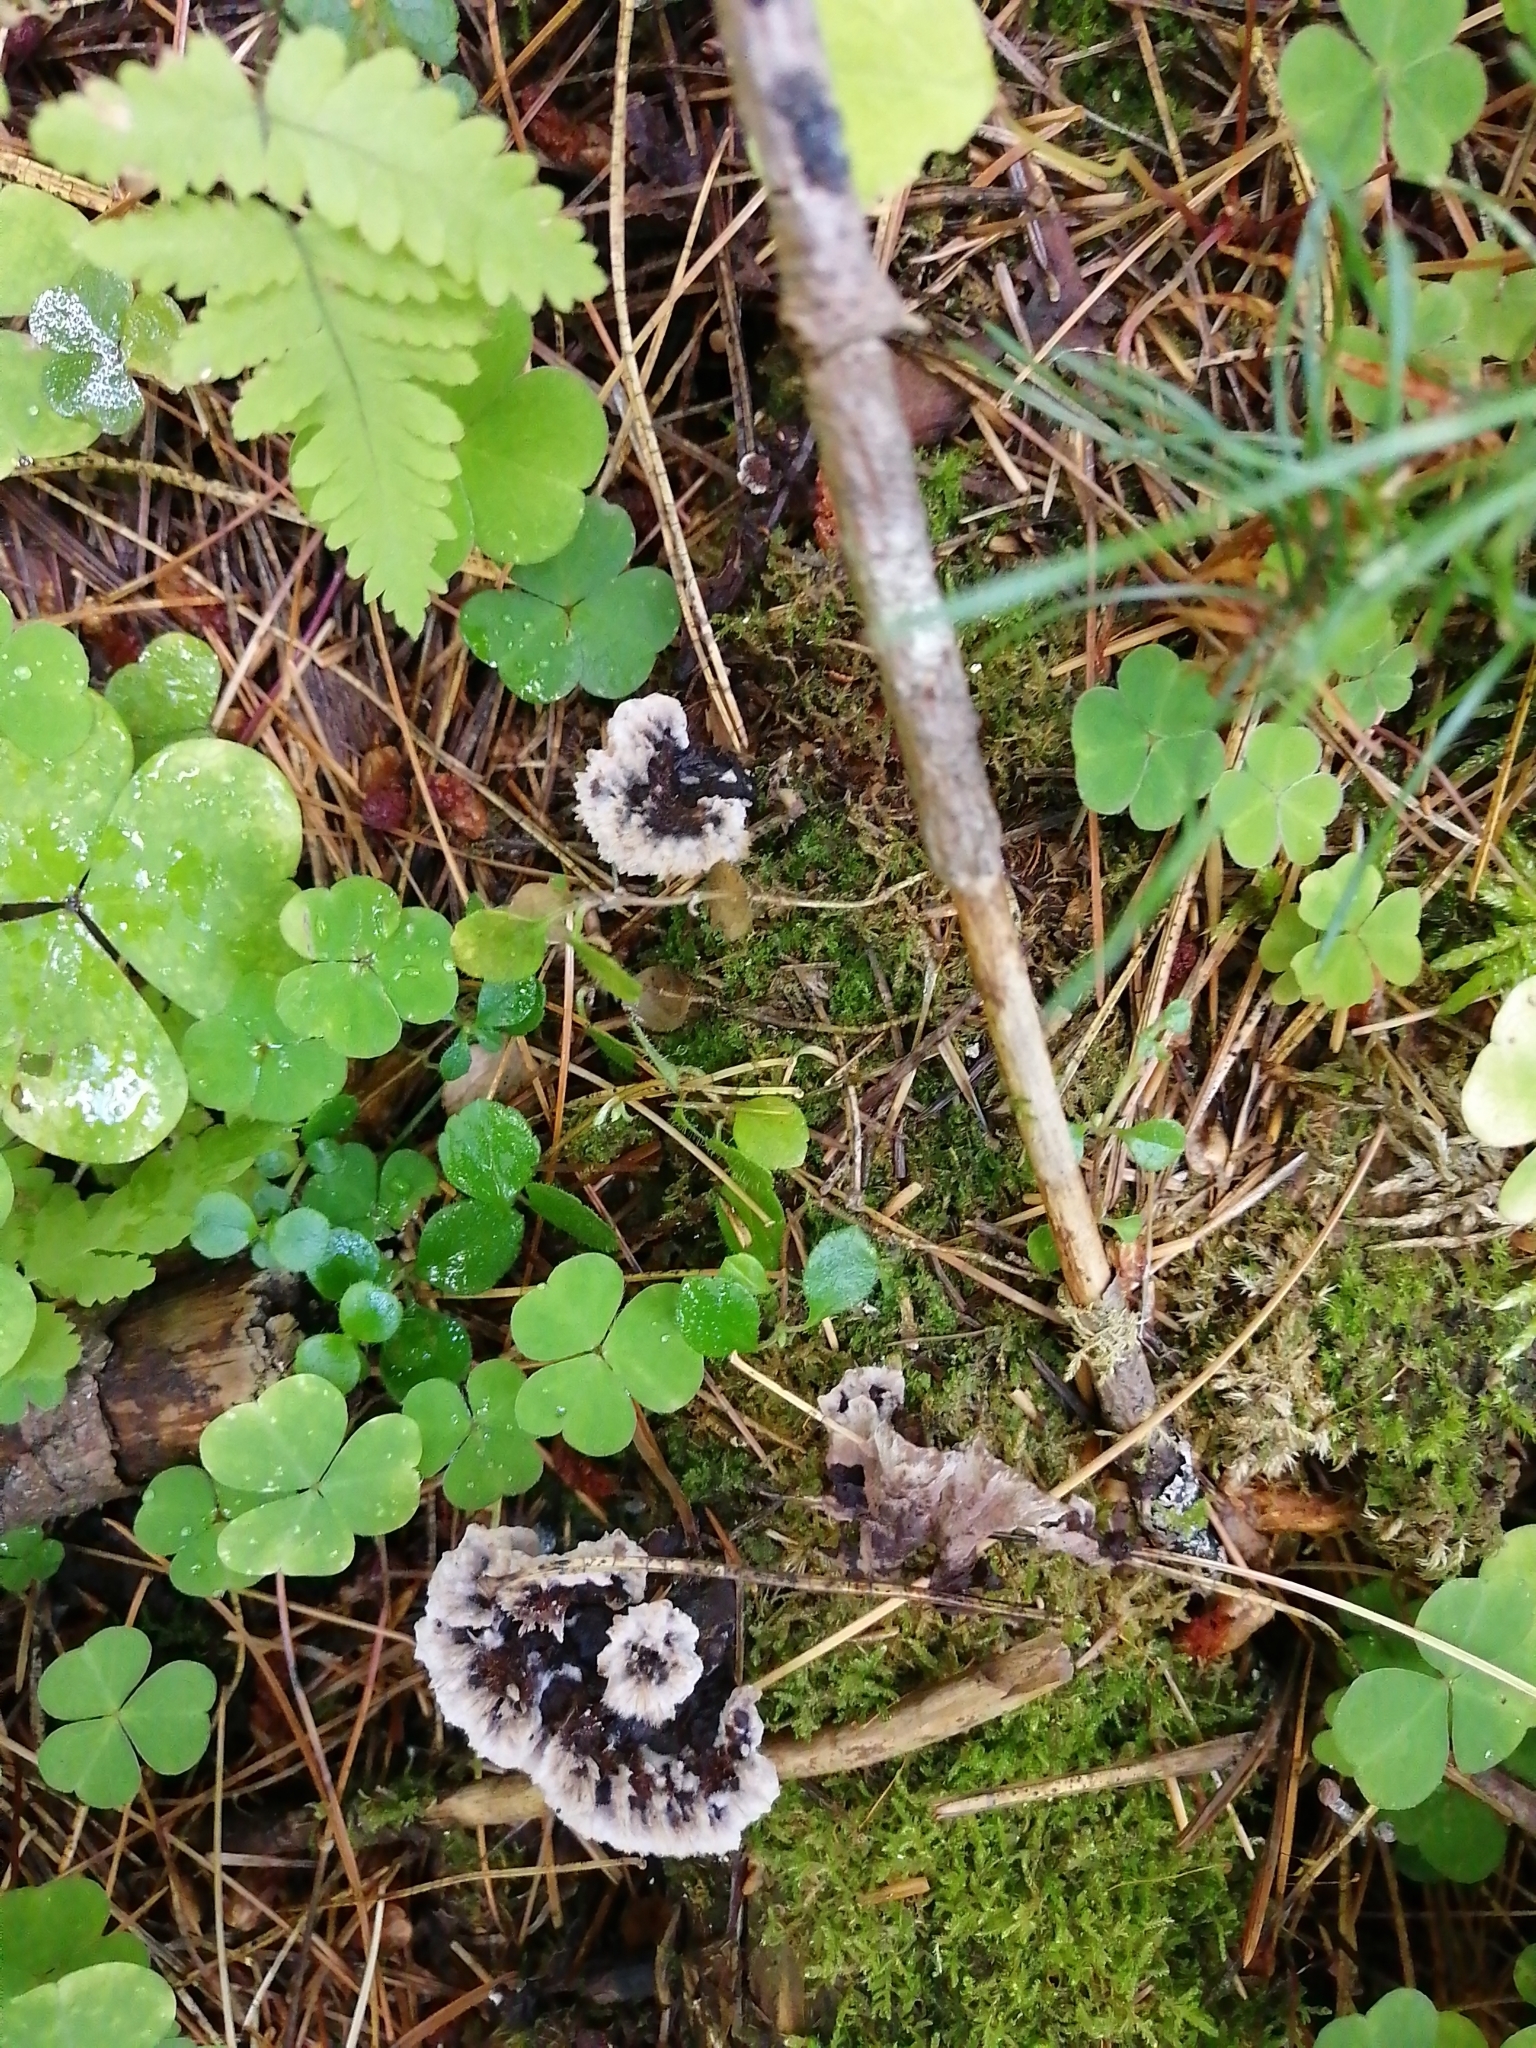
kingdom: Fungi
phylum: Basidiomycota
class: Agaricomycetes
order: Thelephorales
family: Thelephoraceae
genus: Thelephora
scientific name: Thelephora terrestris
